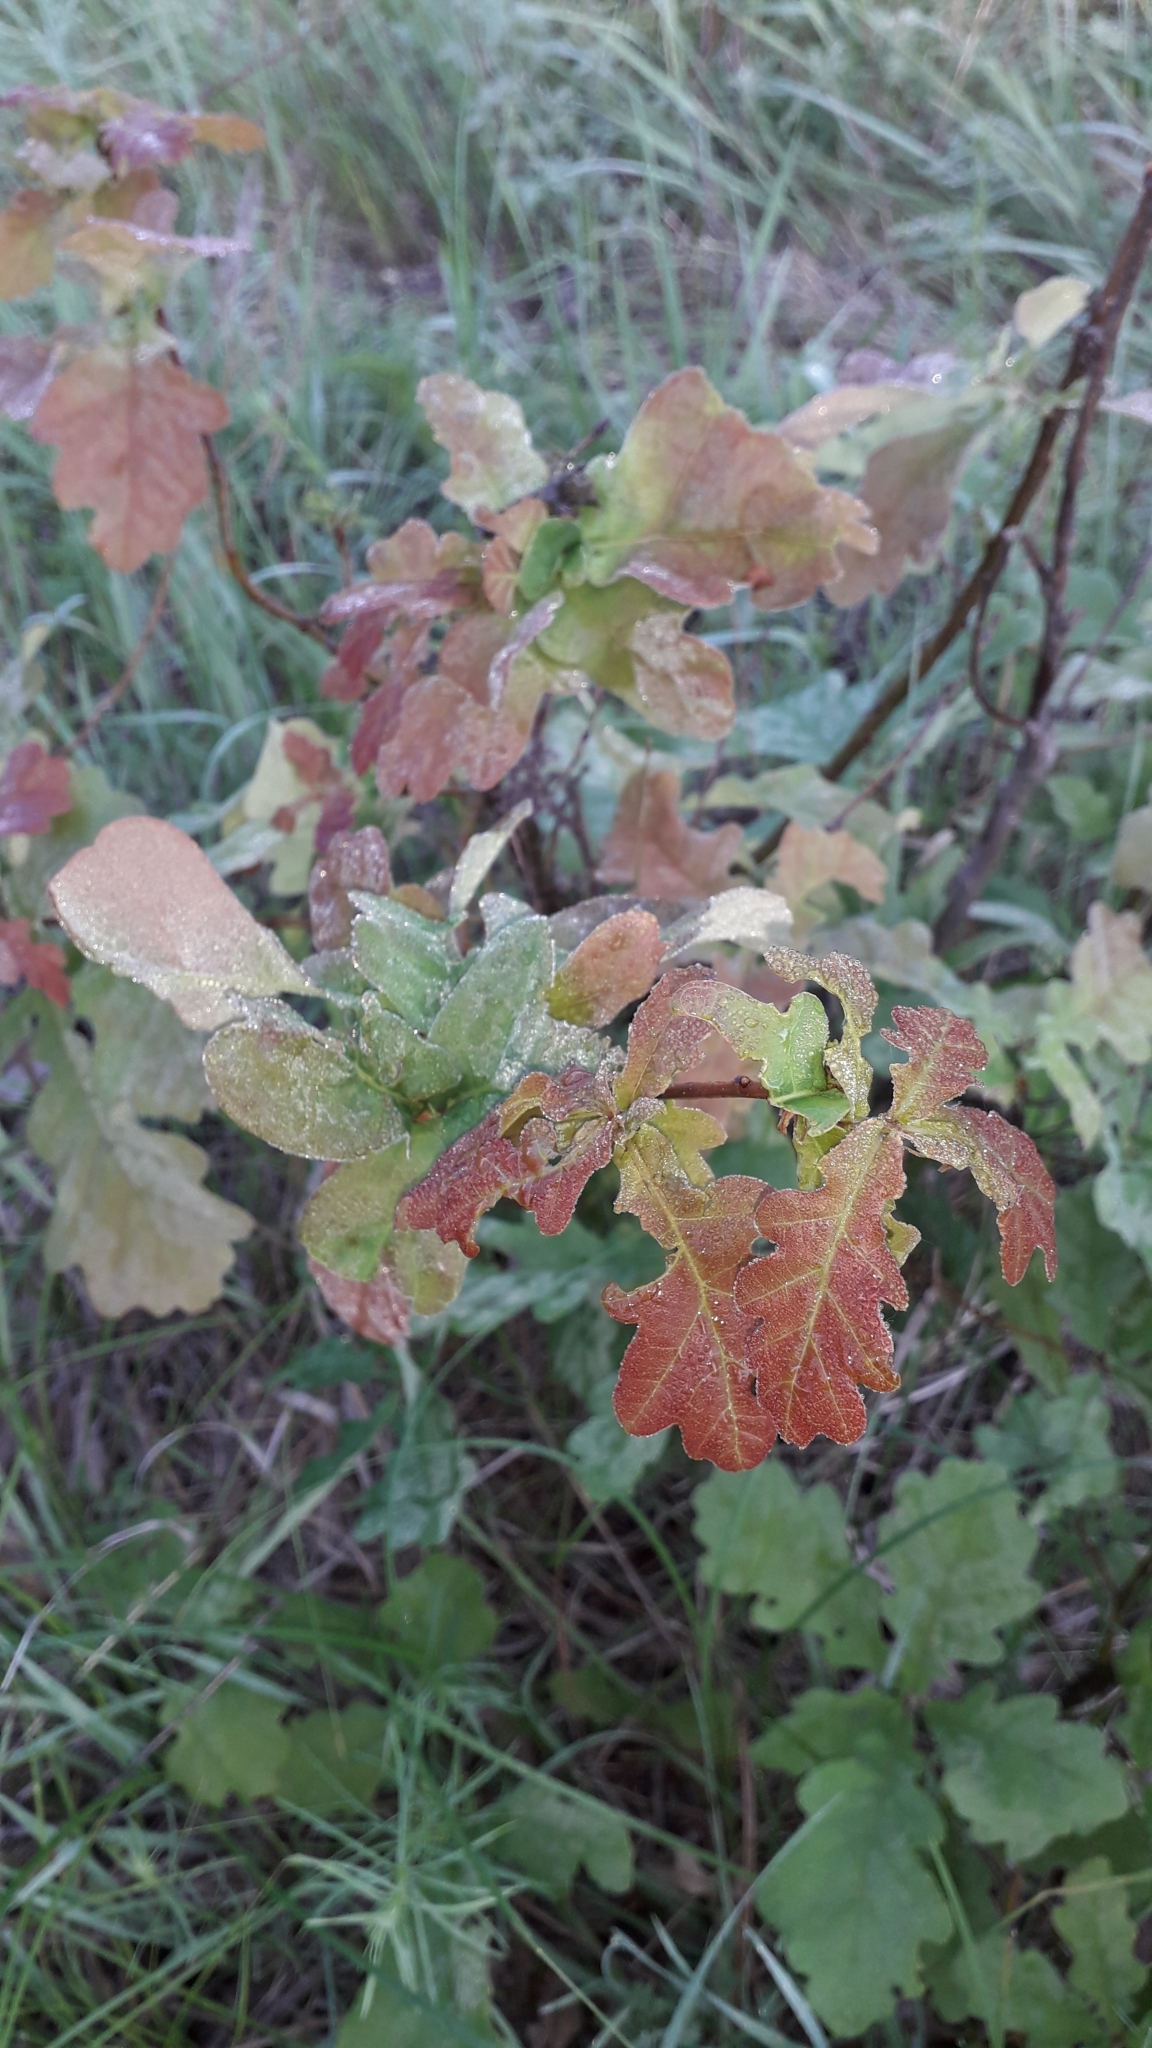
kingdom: Plantae
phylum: Tracheophyta
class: Magnoliopsida
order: Fagales
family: Fagaceae
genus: Quercus
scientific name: Quercus robur
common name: Pedunculate oak
